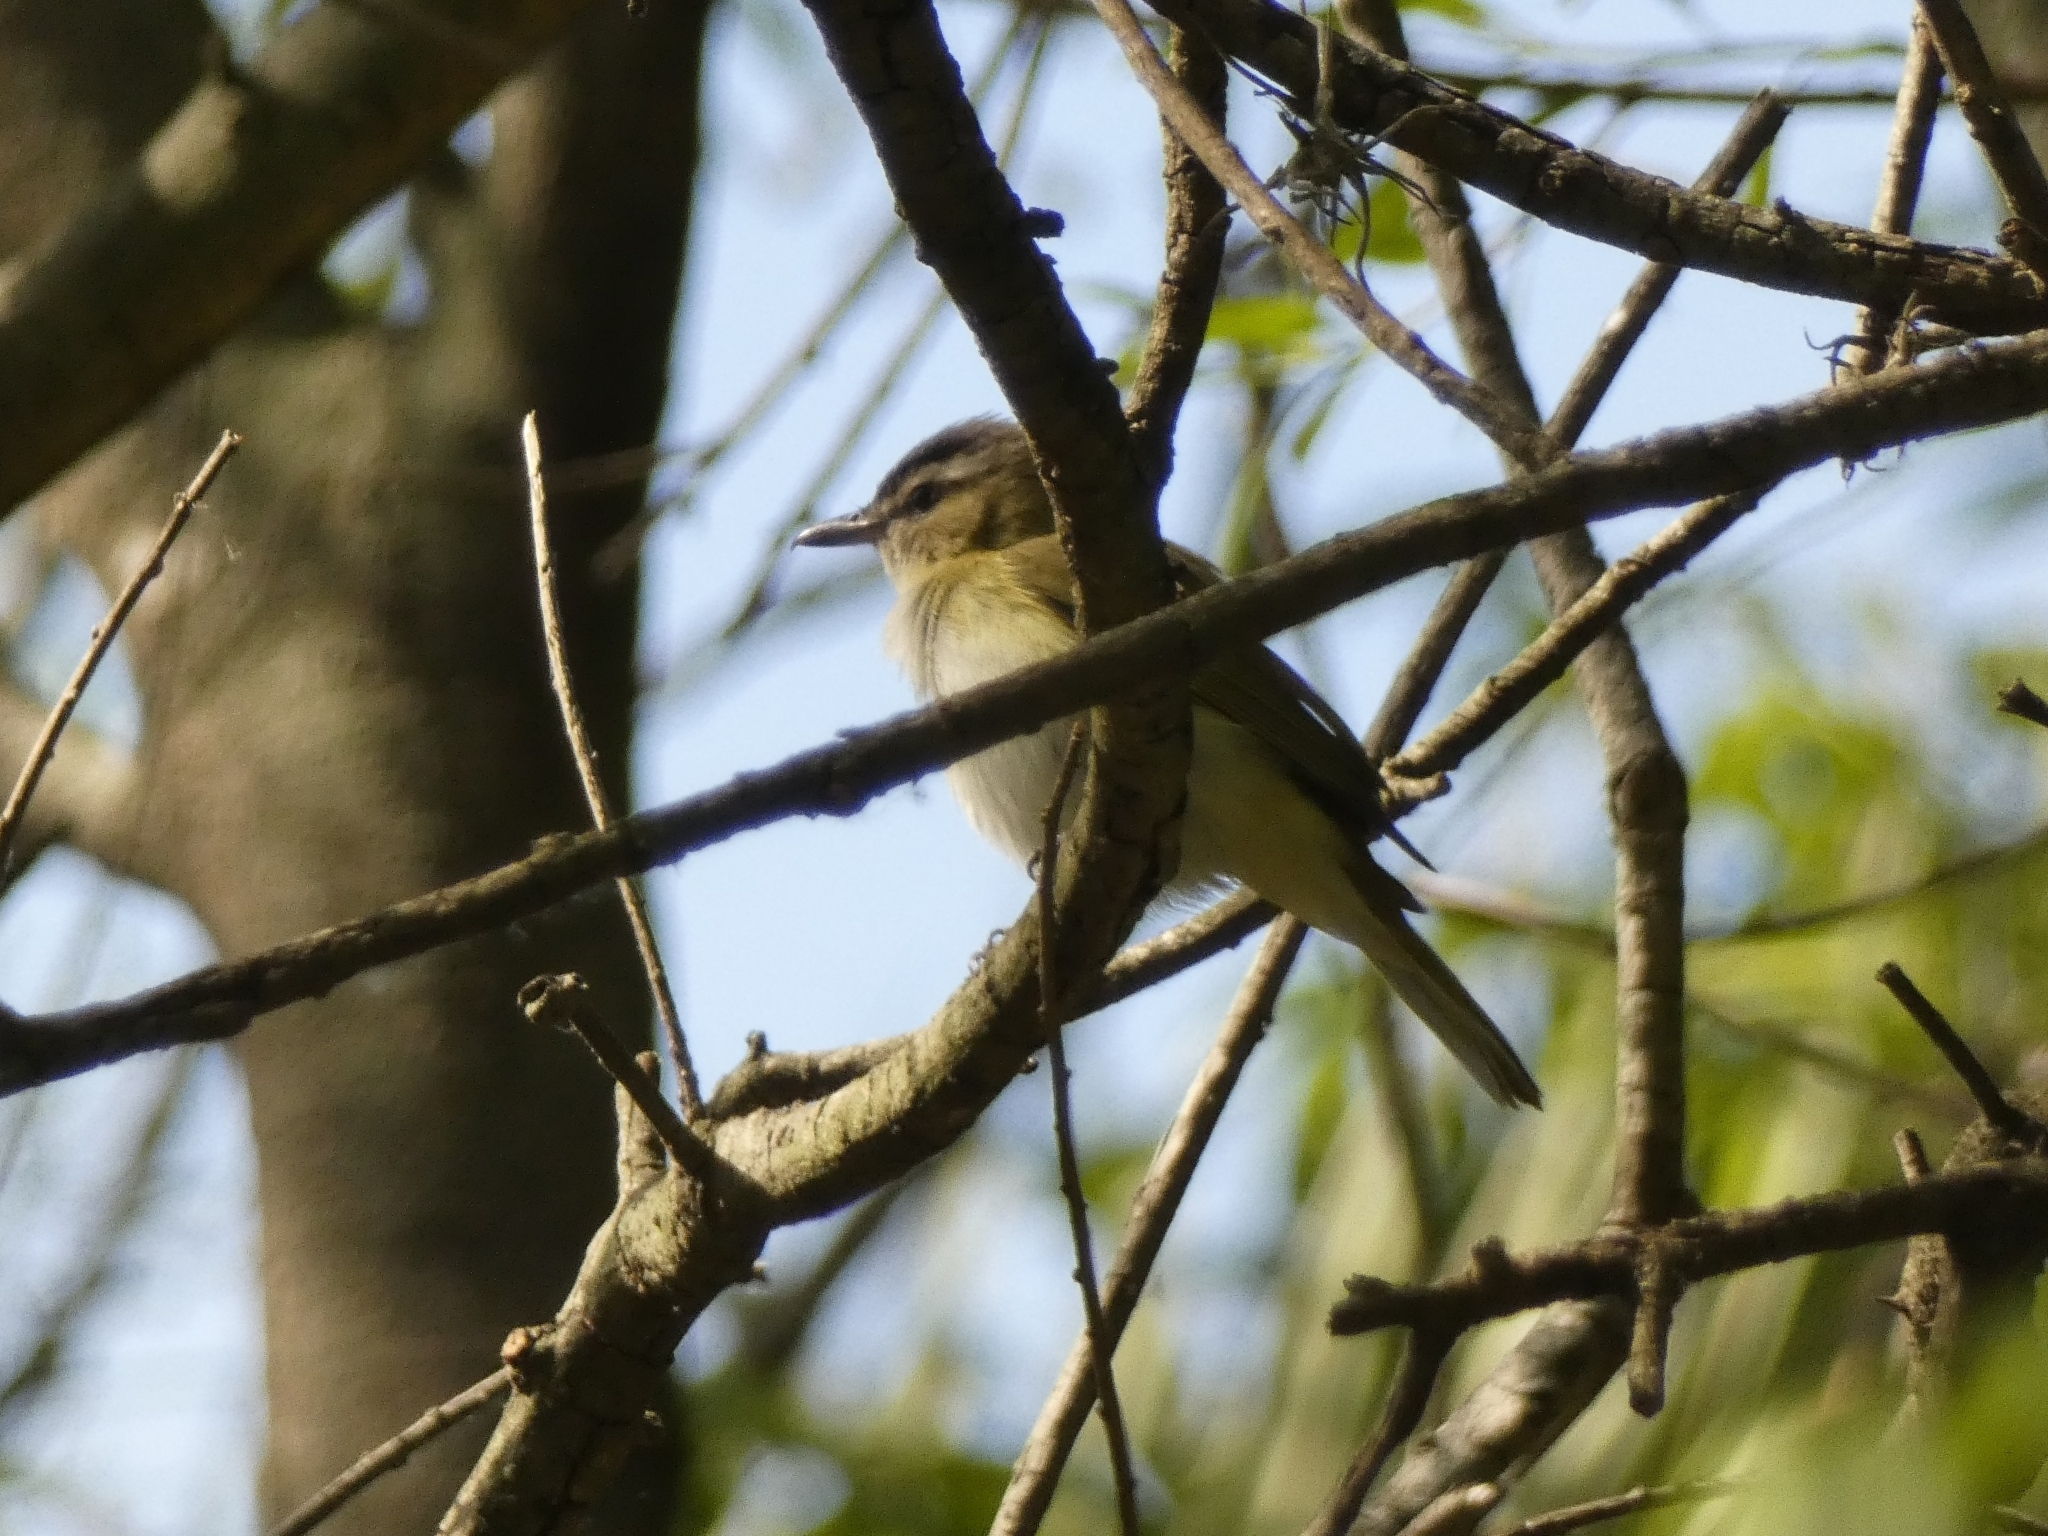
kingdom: Animalia
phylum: Chordata
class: Aves
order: Passeriformes
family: Vireonidae
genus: Vireo
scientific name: Vireo olivaceus
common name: Red-eyed vireo
